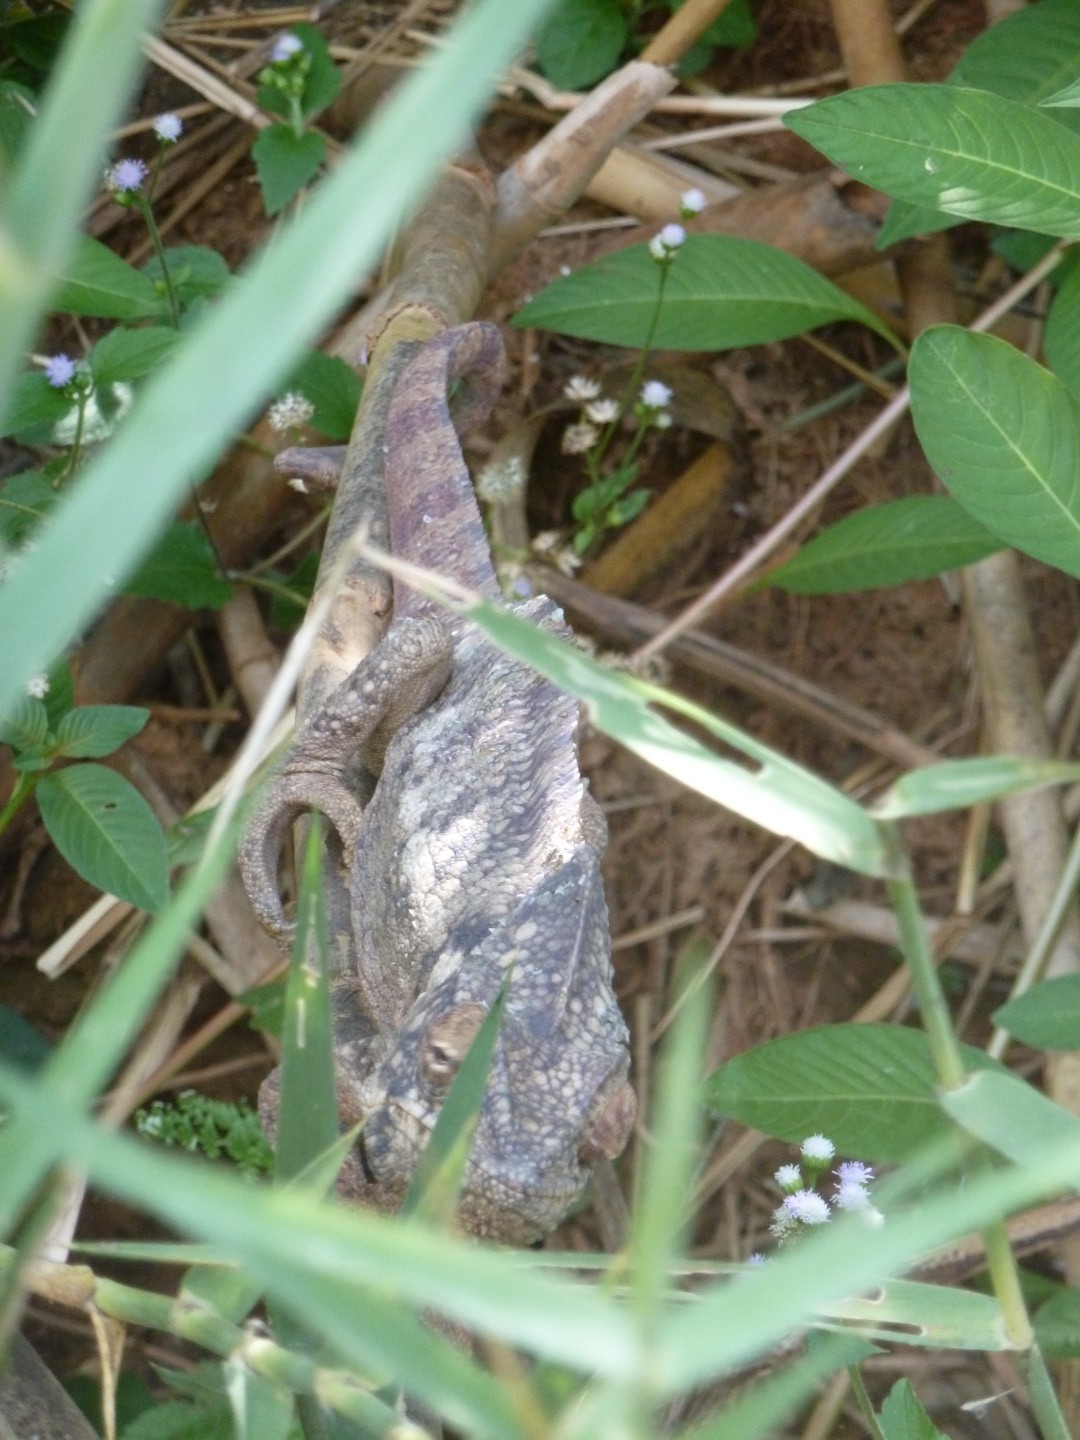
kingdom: Animalia
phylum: Chordata
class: Squamata
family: Chamaeleonidae
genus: Furcifer
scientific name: Furcifer oustaleti
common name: Oustalet's chameleon
